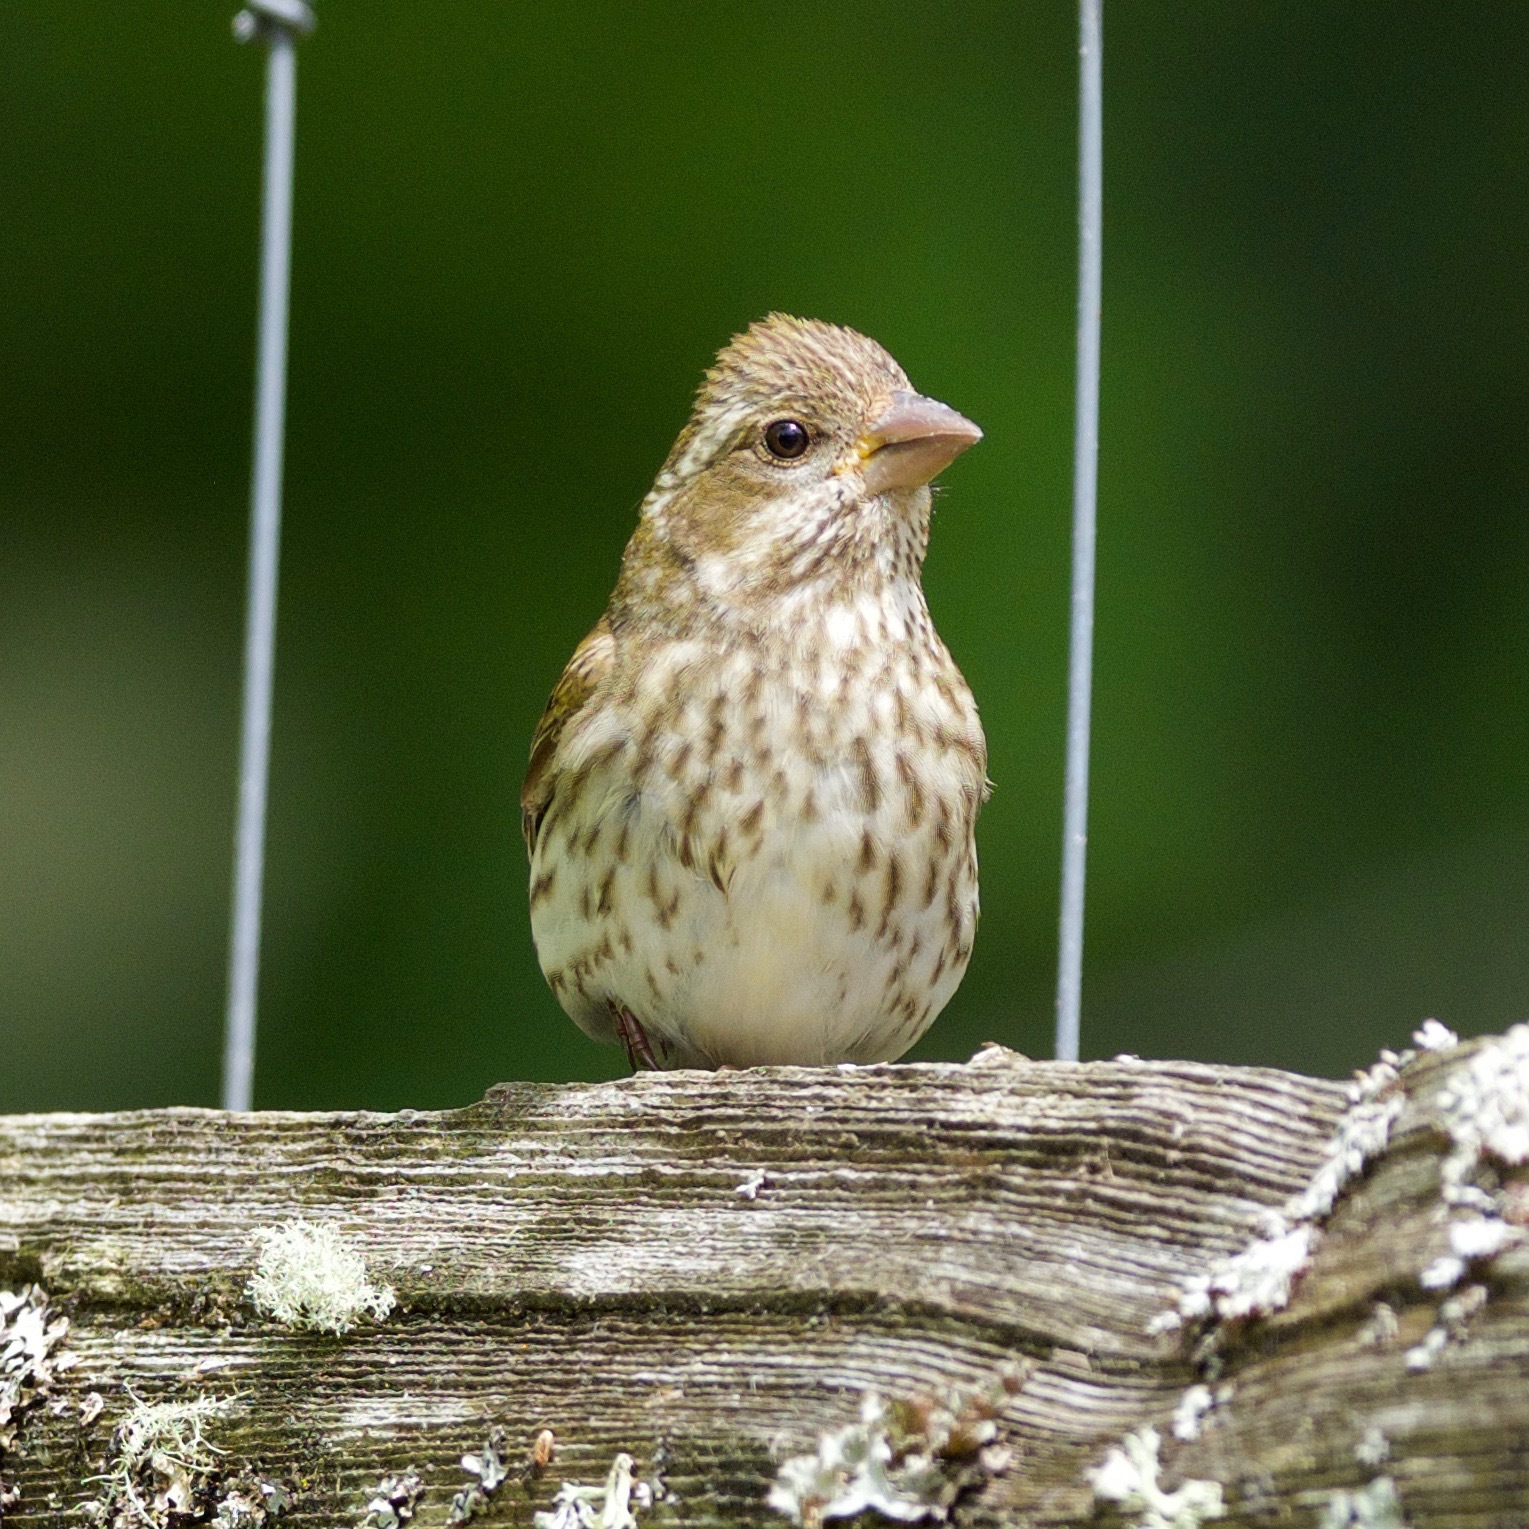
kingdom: Animalia
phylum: Chordata
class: Aves
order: Passeriformes
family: Fringillidae
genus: Haemorhous
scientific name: Haemorhous purpureus
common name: Purple finch
